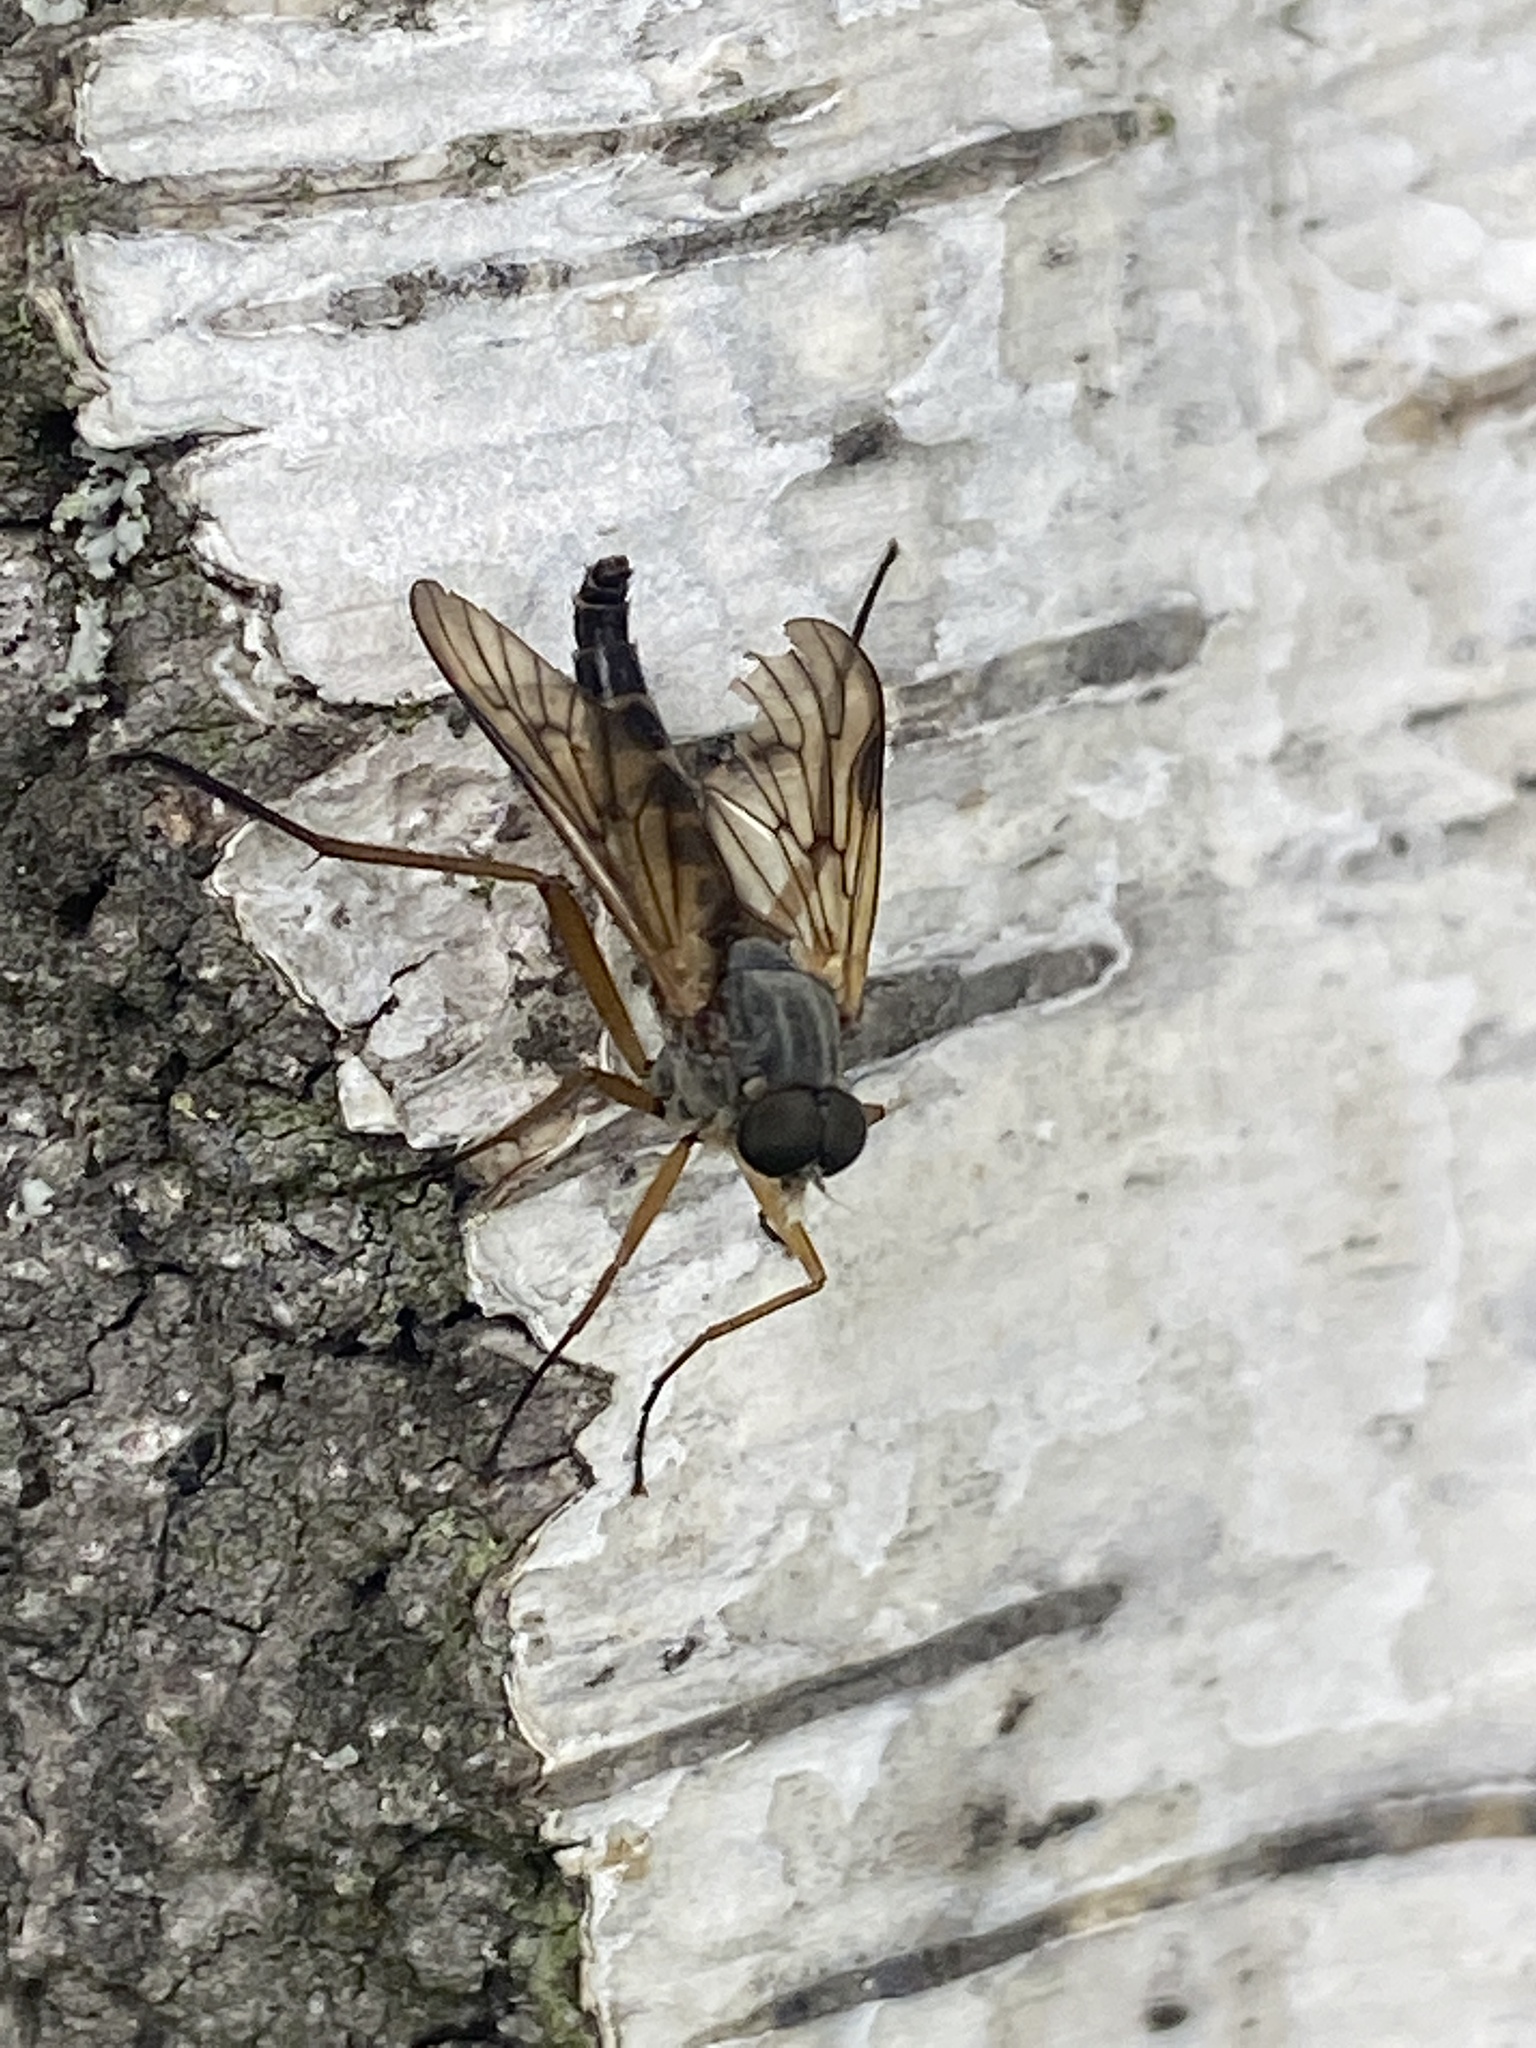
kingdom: Animalia
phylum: Arthropoda
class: Insecta
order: Diptera
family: Rhagionidae
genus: Rhagio
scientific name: Rhagio scolopacea
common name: Downlooker snipefly
